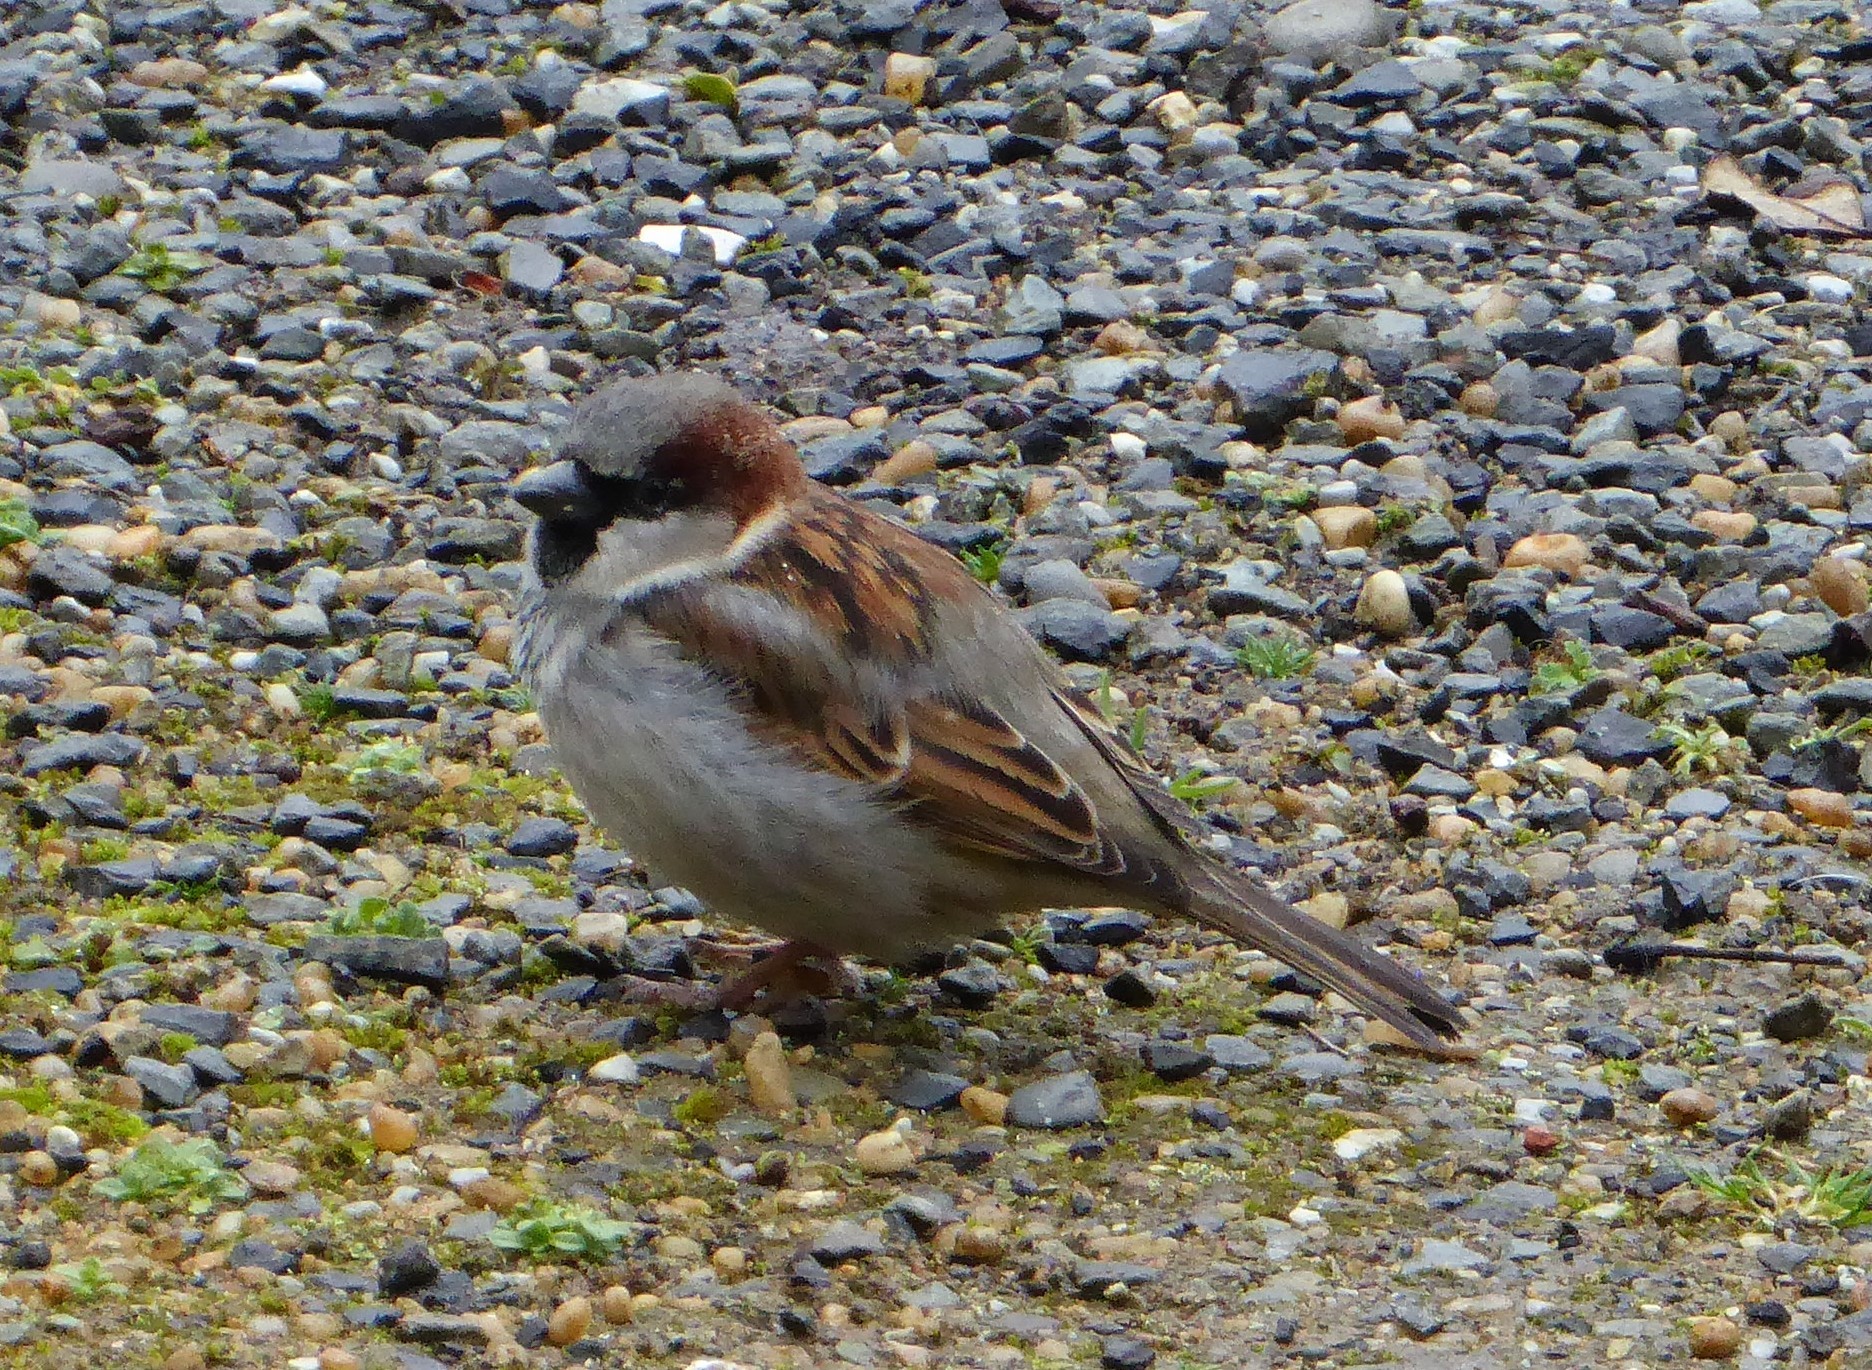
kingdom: Animalia
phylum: Chordata
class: Aves
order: Passeriformes
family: Passeridae
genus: Passer
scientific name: Passer domesticus
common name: House sparrow
